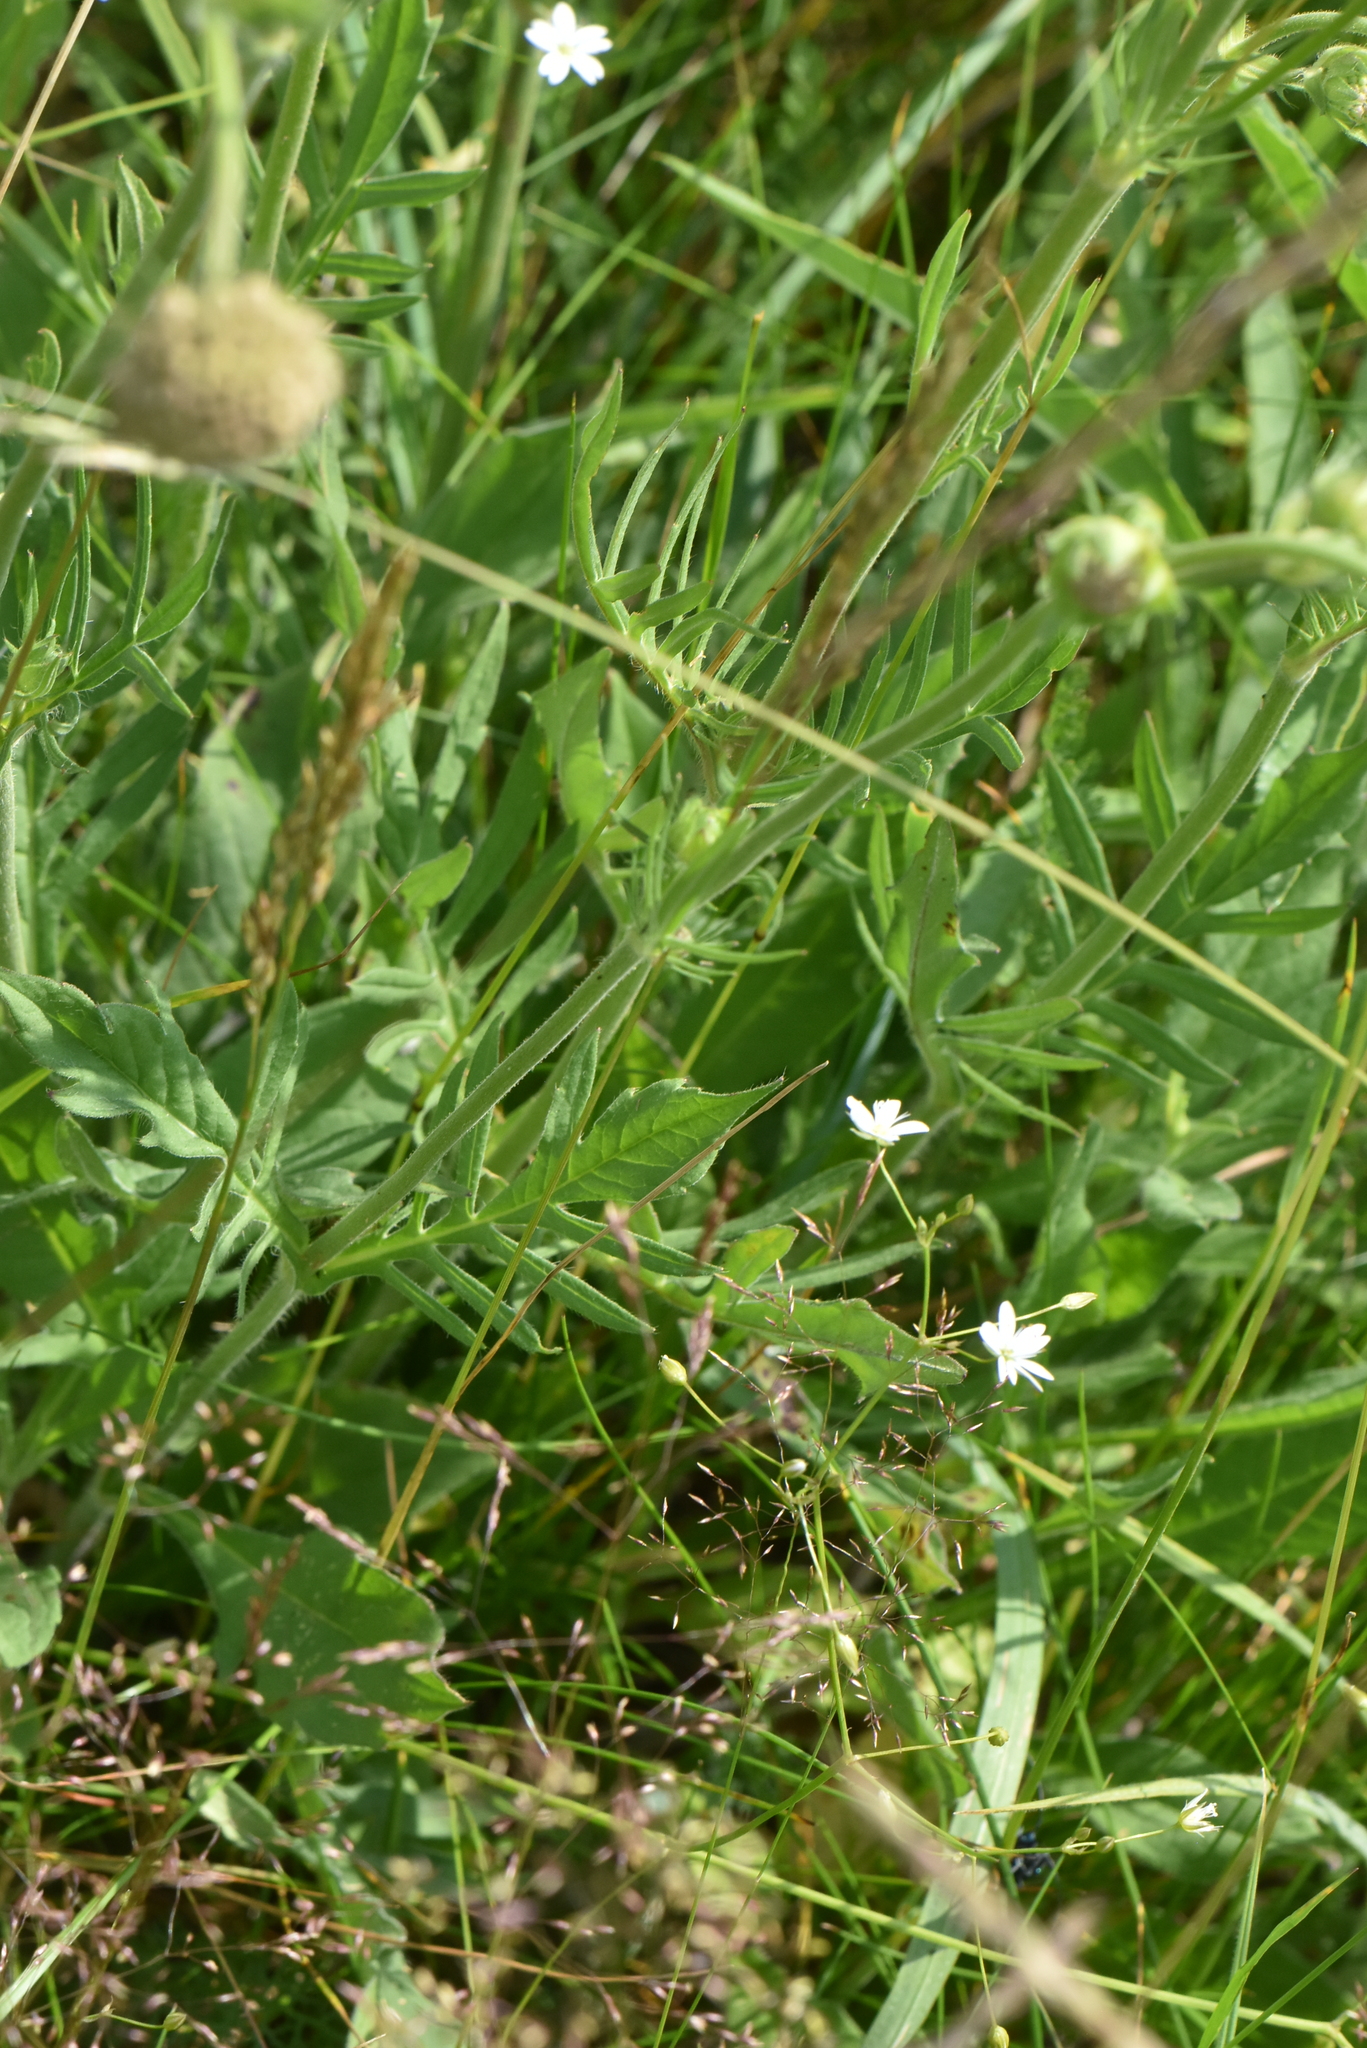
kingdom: Plantae
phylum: Tracheophyta
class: Magnoliopsida
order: Dipsacales
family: Caprifoliaceae
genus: Knautia
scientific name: Knautia arvensis
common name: Field scabiosa
